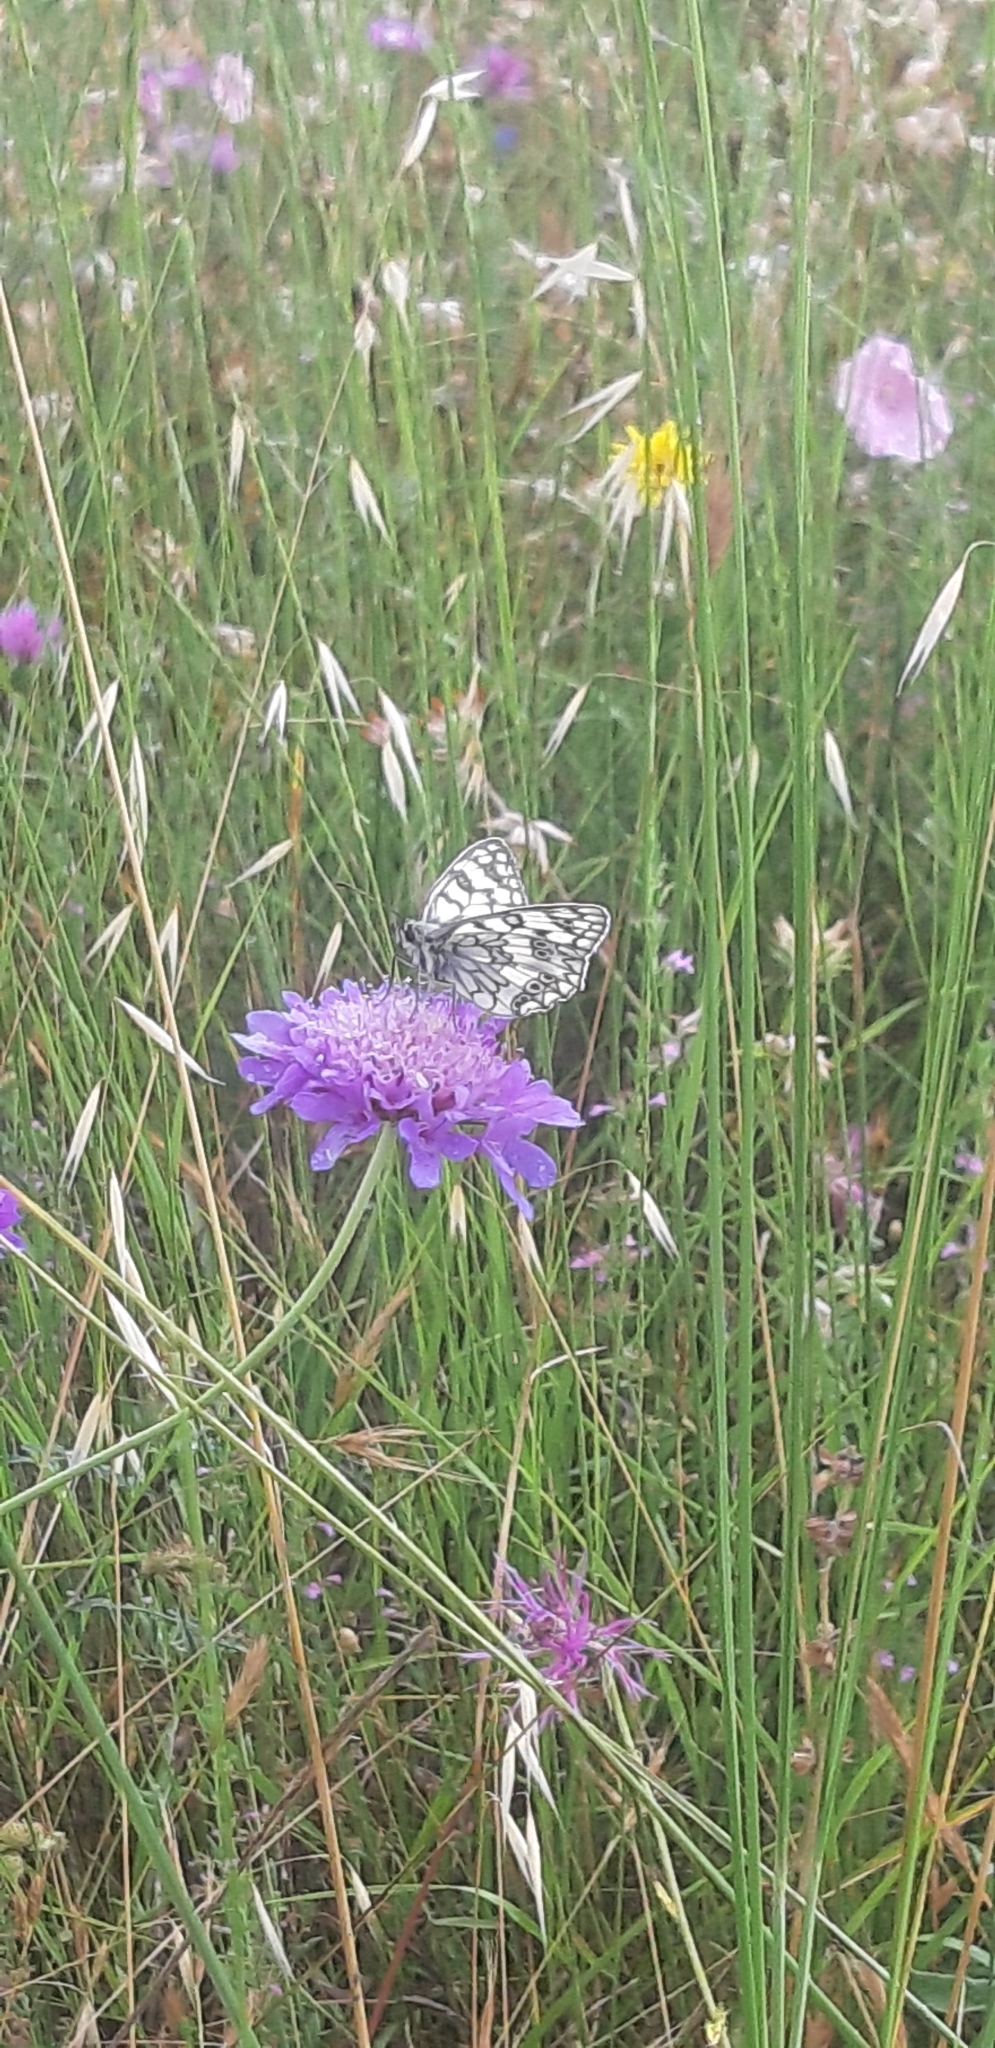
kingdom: Animalia
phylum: Arthropoda
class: Insecta
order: Lepidoptera
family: Nymphalidae
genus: Melanargia
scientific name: Melanargia japygia
